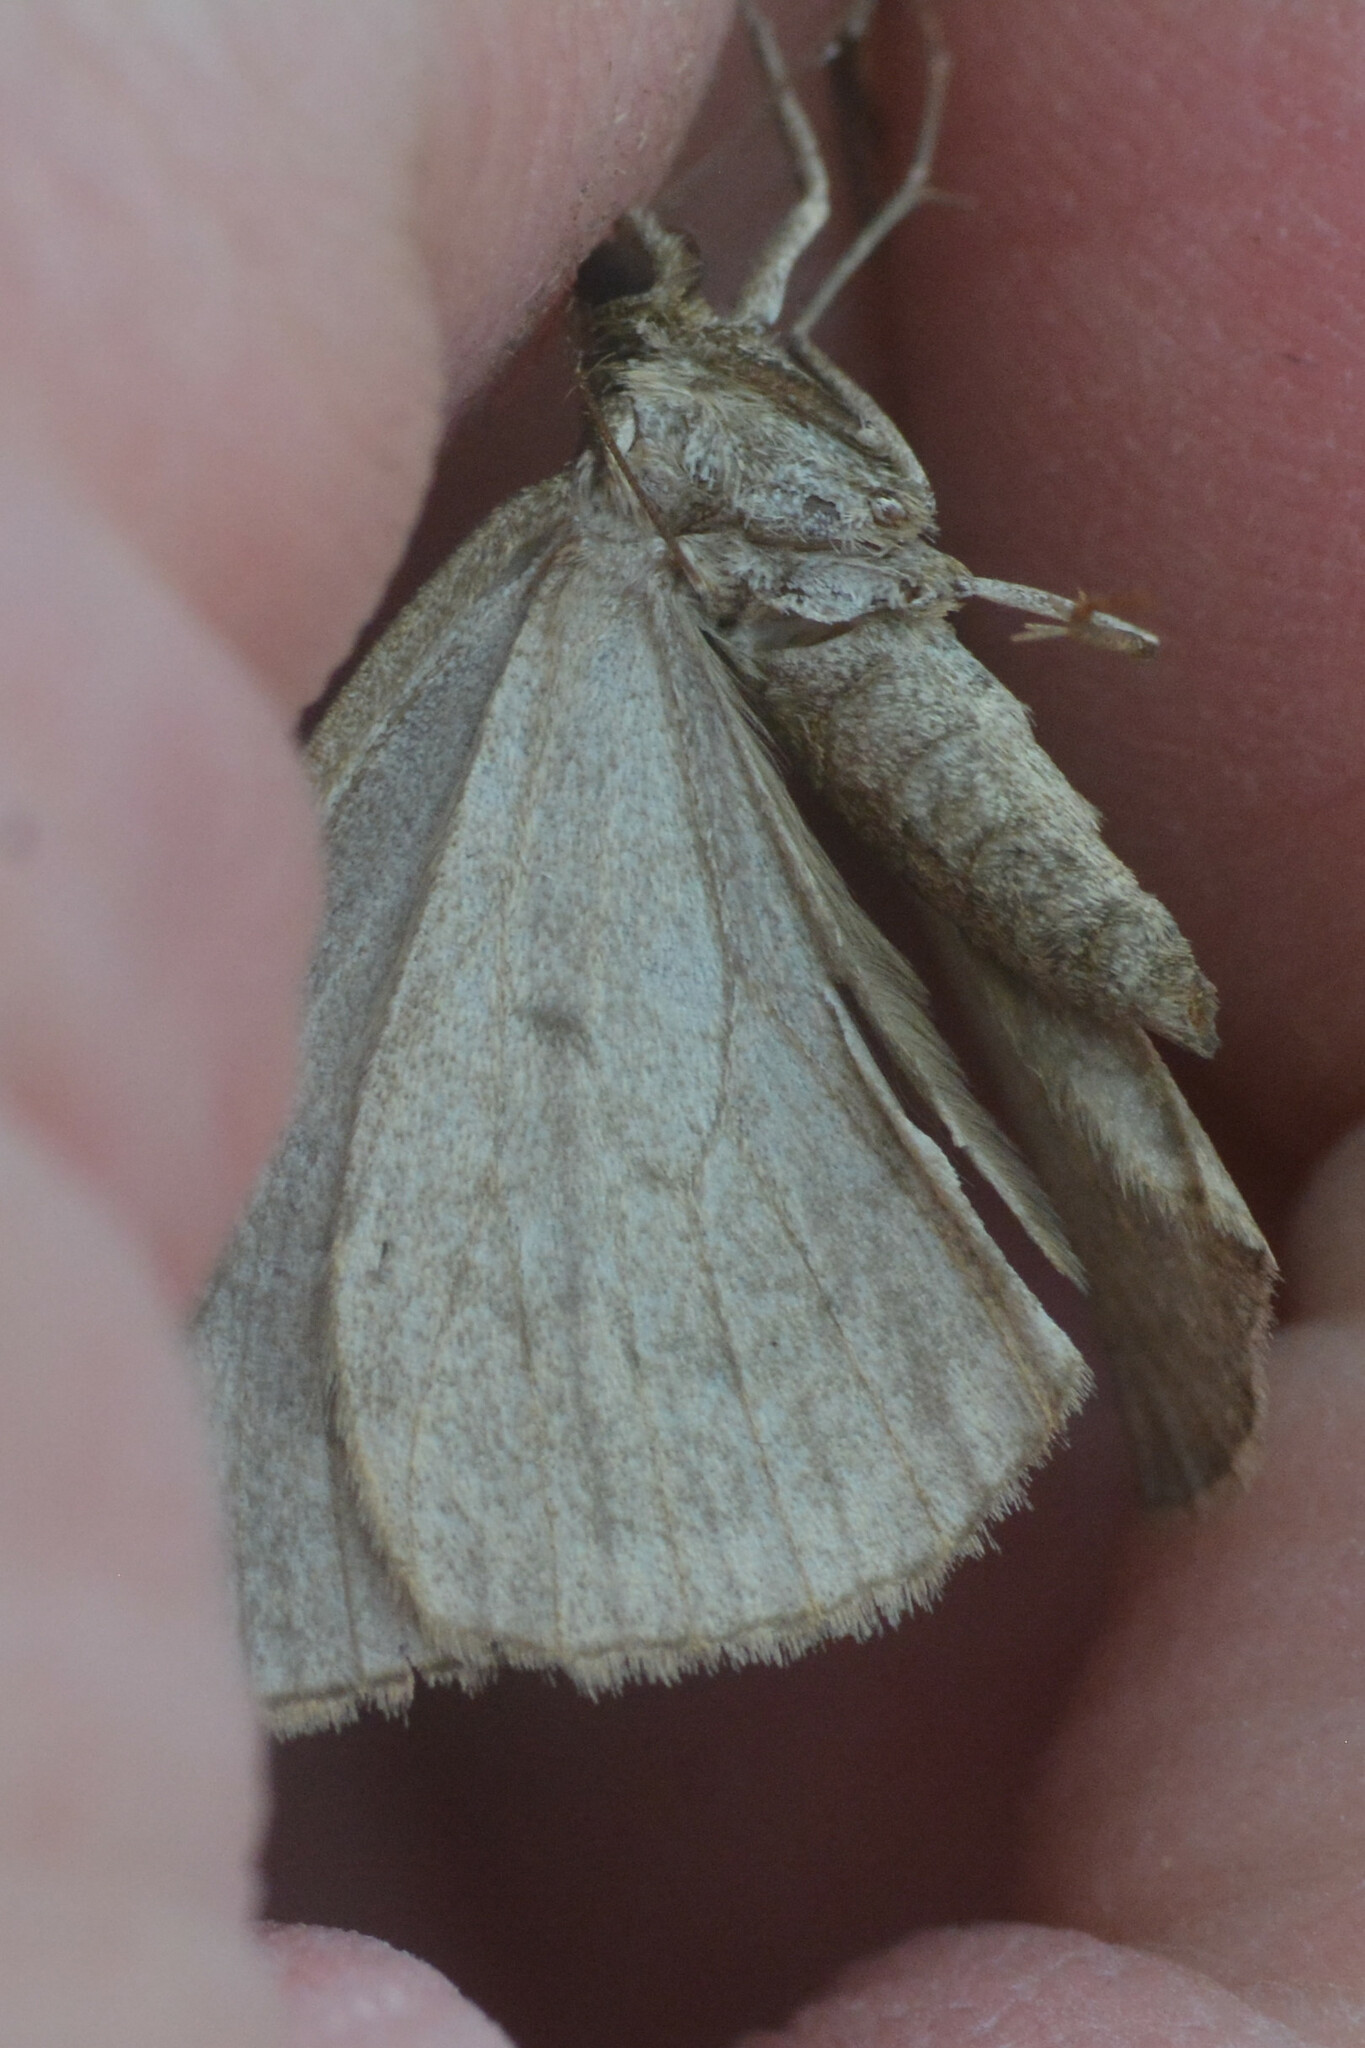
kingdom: Animalia
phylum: Arthropoda
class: Insecta
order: Lepidoptera
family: Geometridae
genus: Dysstroma
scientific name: Dysstroma truncata
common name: Common marbled carpet
